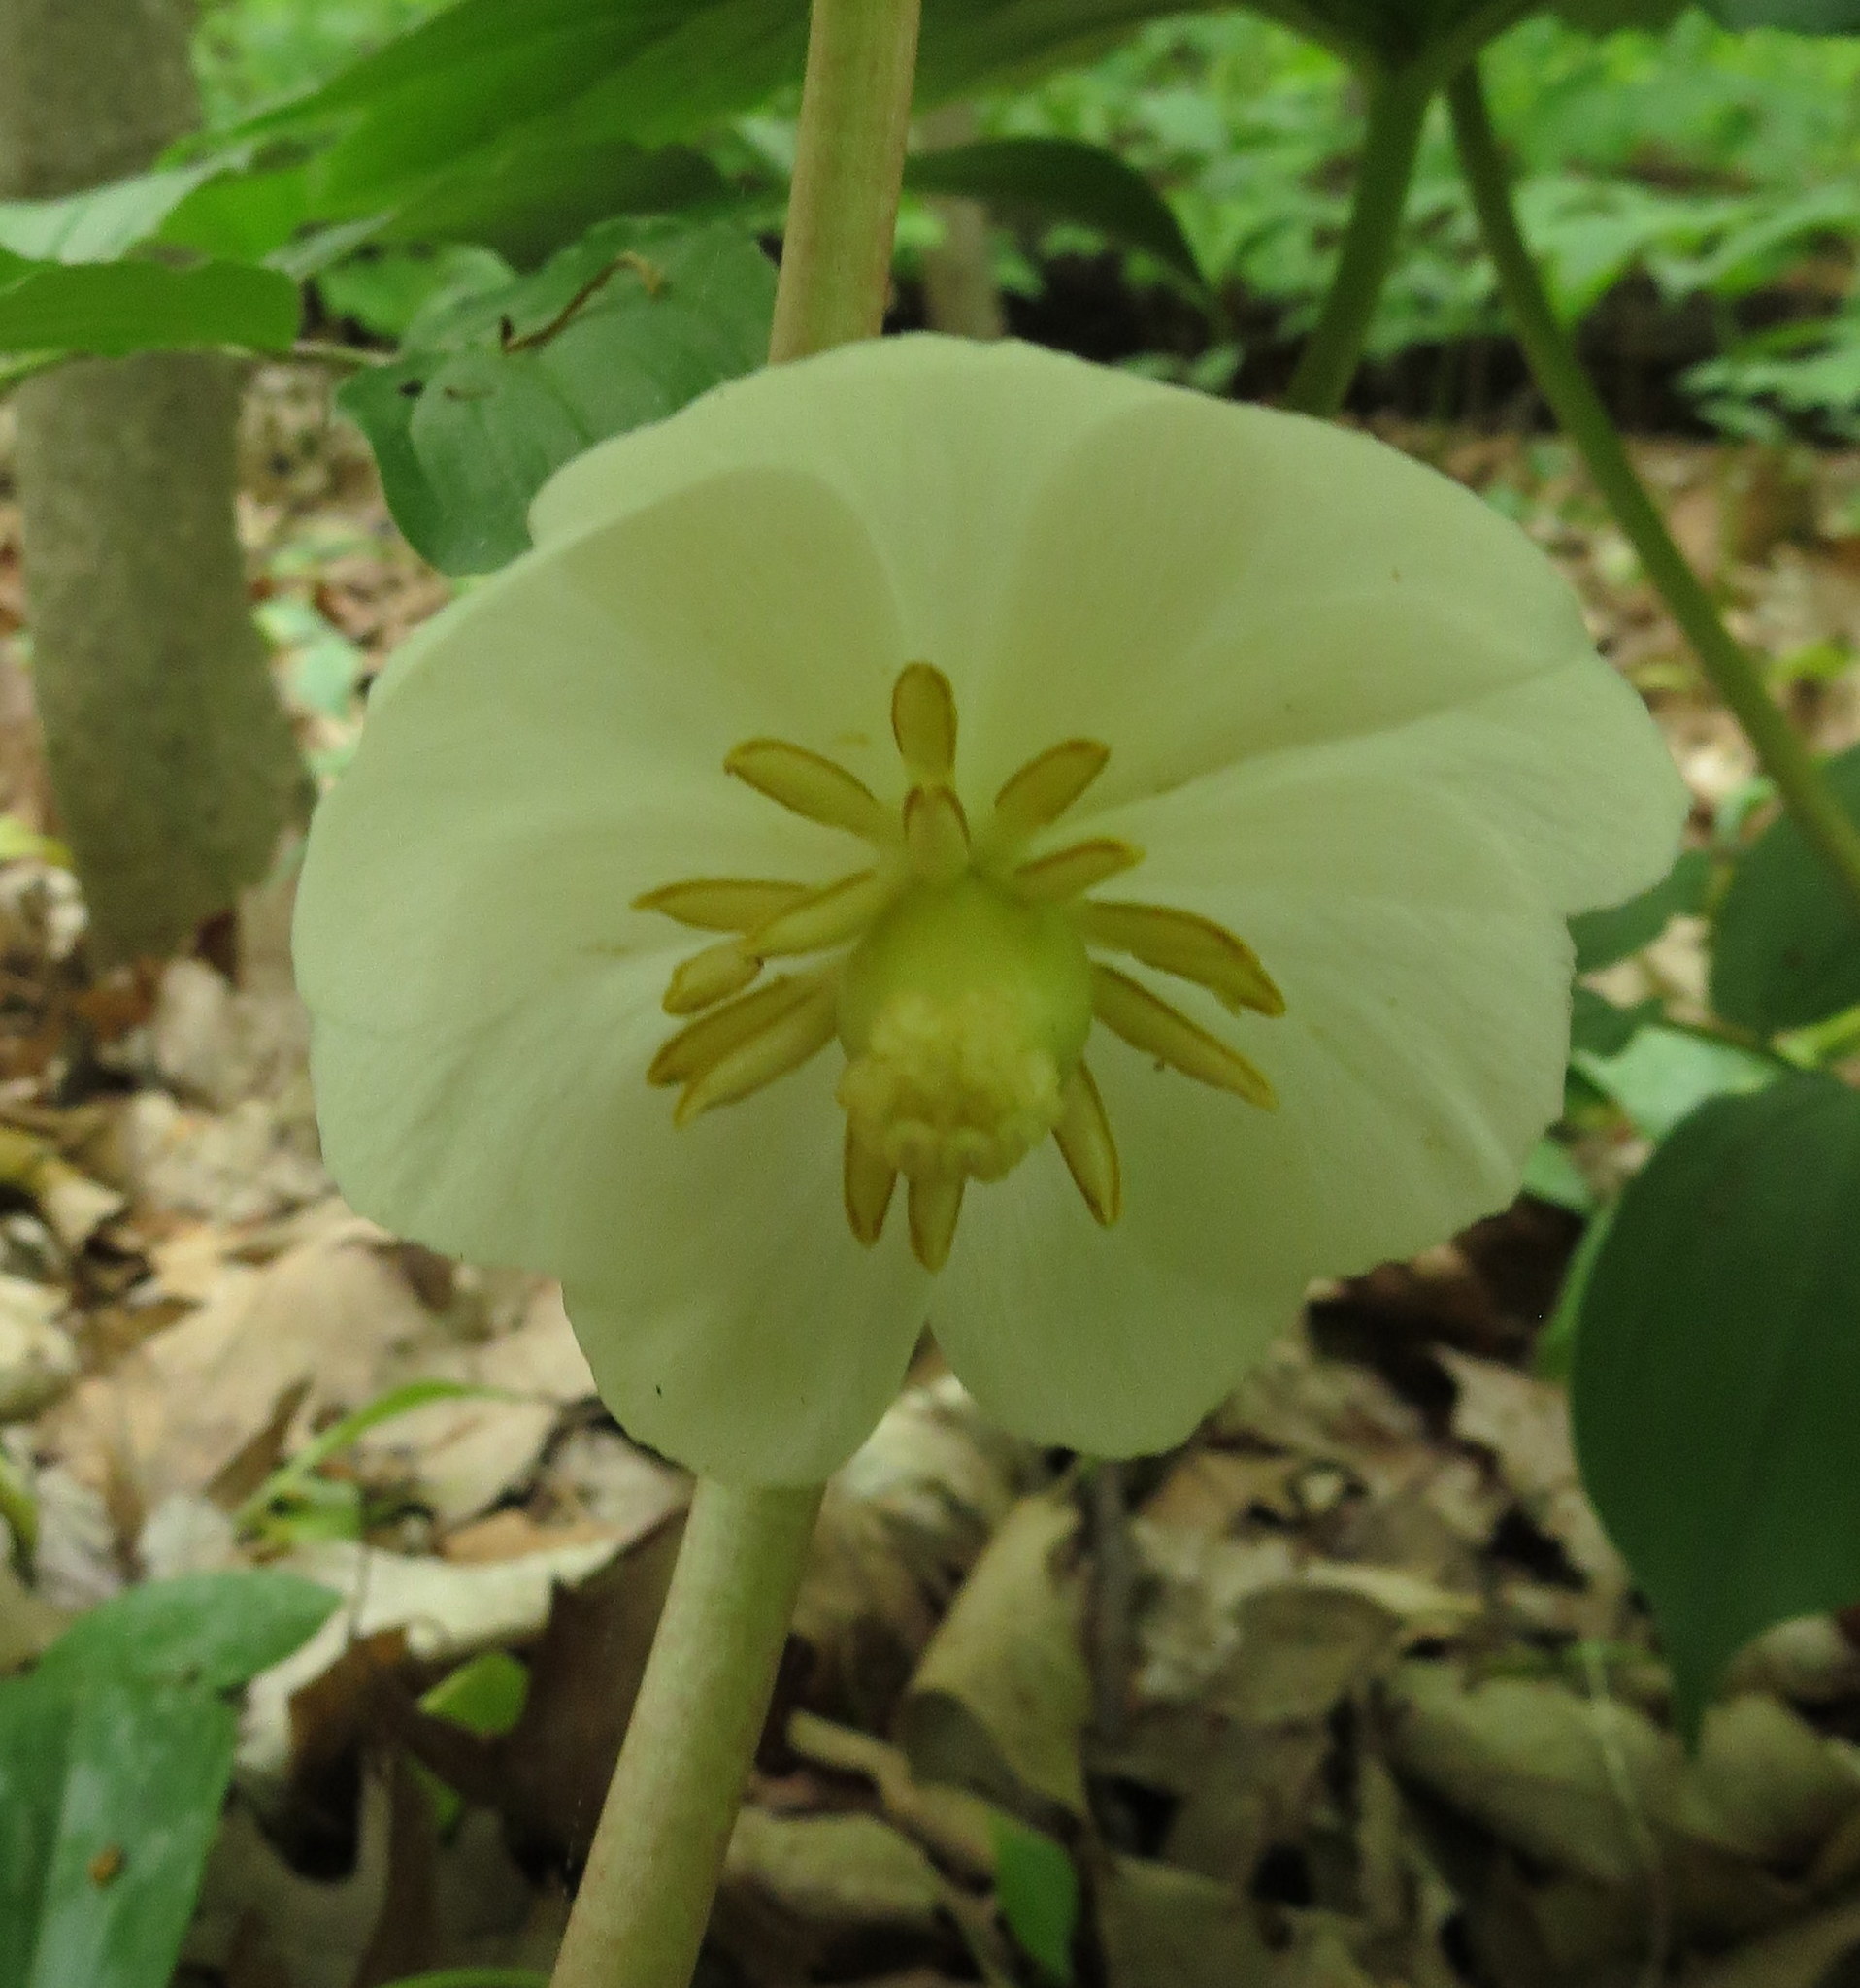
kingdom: Plantae
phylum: Tracheophyta
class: Magnoliopsida
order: Ranunculales
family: Berberidaceae
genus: Podophyllum
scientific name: Podophyllum peltatum
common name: Wild mandrake
